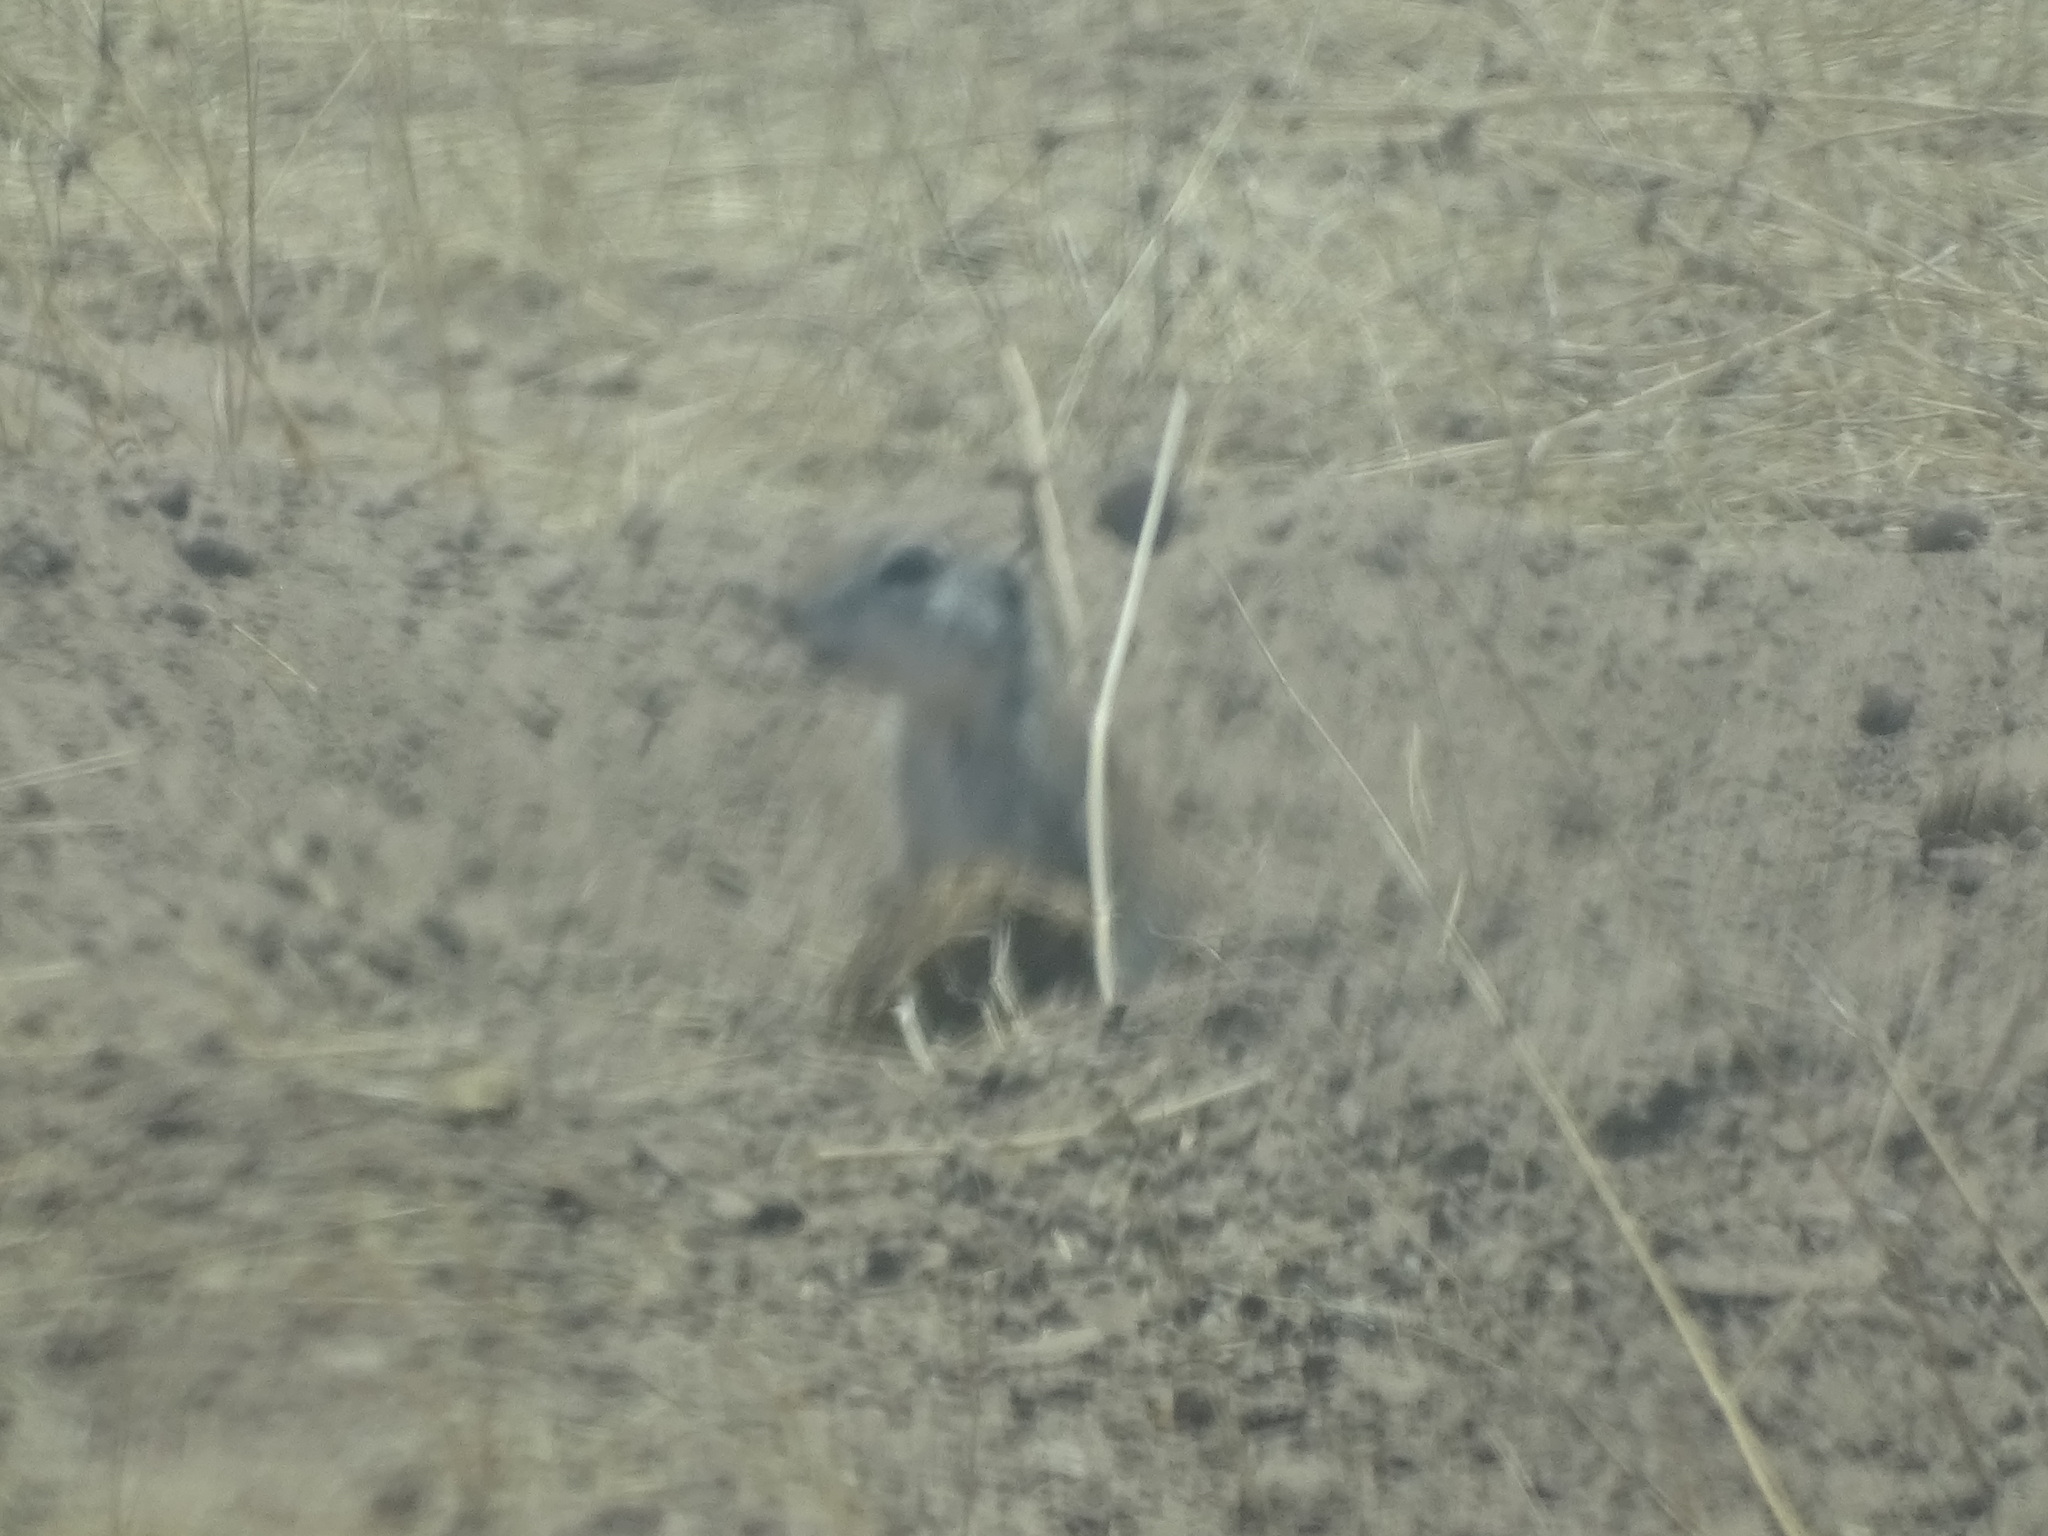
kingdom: Animalia
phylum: Chordata
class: Mammalia
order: Rodentia
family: Sciuridae
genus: Xerospermophilus
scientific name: Xerospermophilus tereticaudus
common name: Round-tailed ground squirrel
